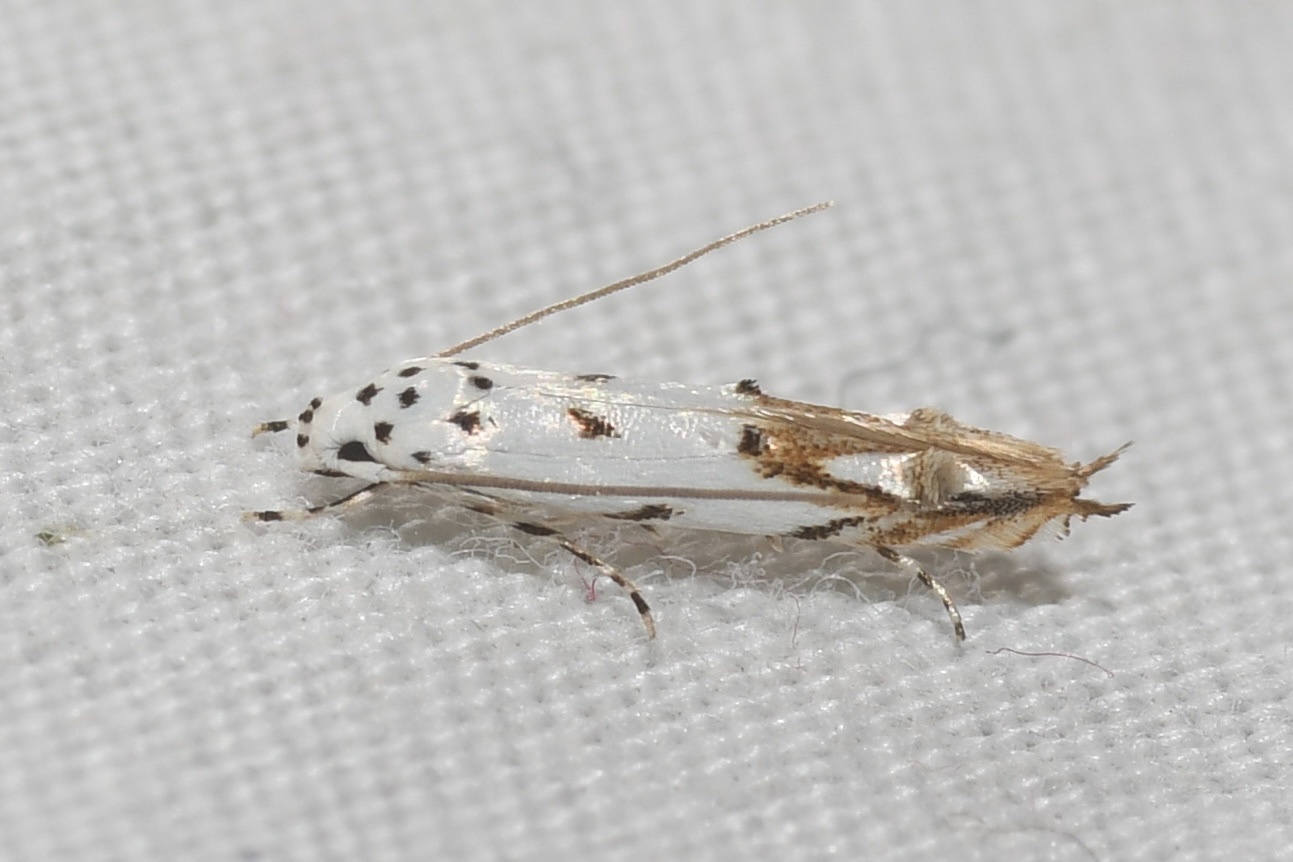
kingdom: Animalia
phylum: Arthropoda
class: Insecta
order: Lepidoptera
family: Momphidae
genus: Mompha
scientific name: Mompha eloisella
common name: Red-streaked mompha moth
